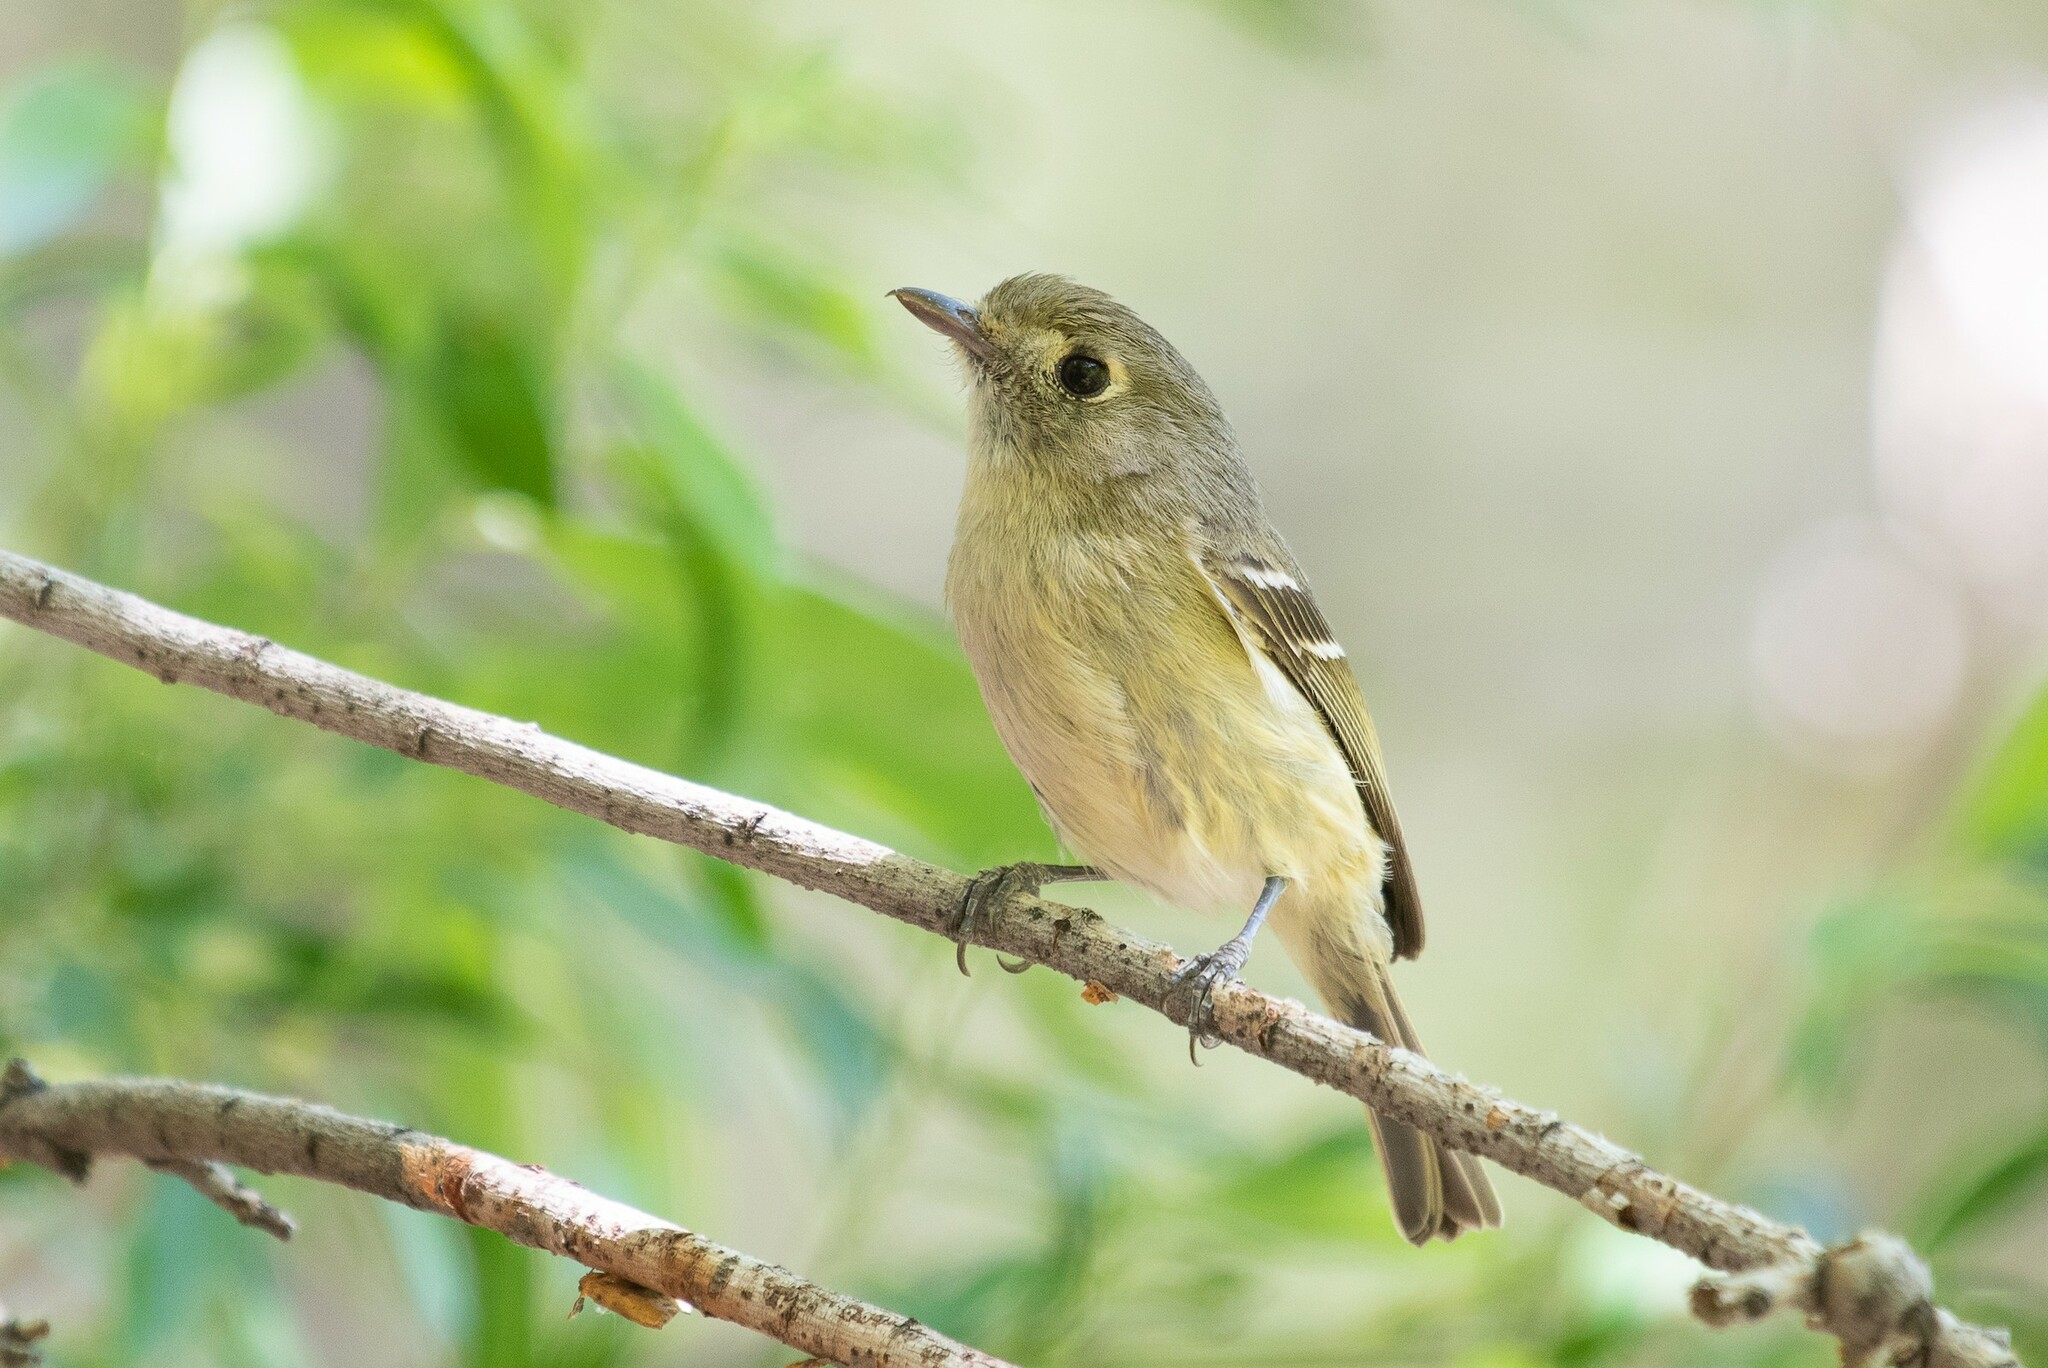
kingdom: Animalia
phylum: Chordata
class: Aves
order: Passeriformes
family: Vireonidae
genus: Vireo
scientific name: Vireo huttoni
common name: Hutton's vireo
